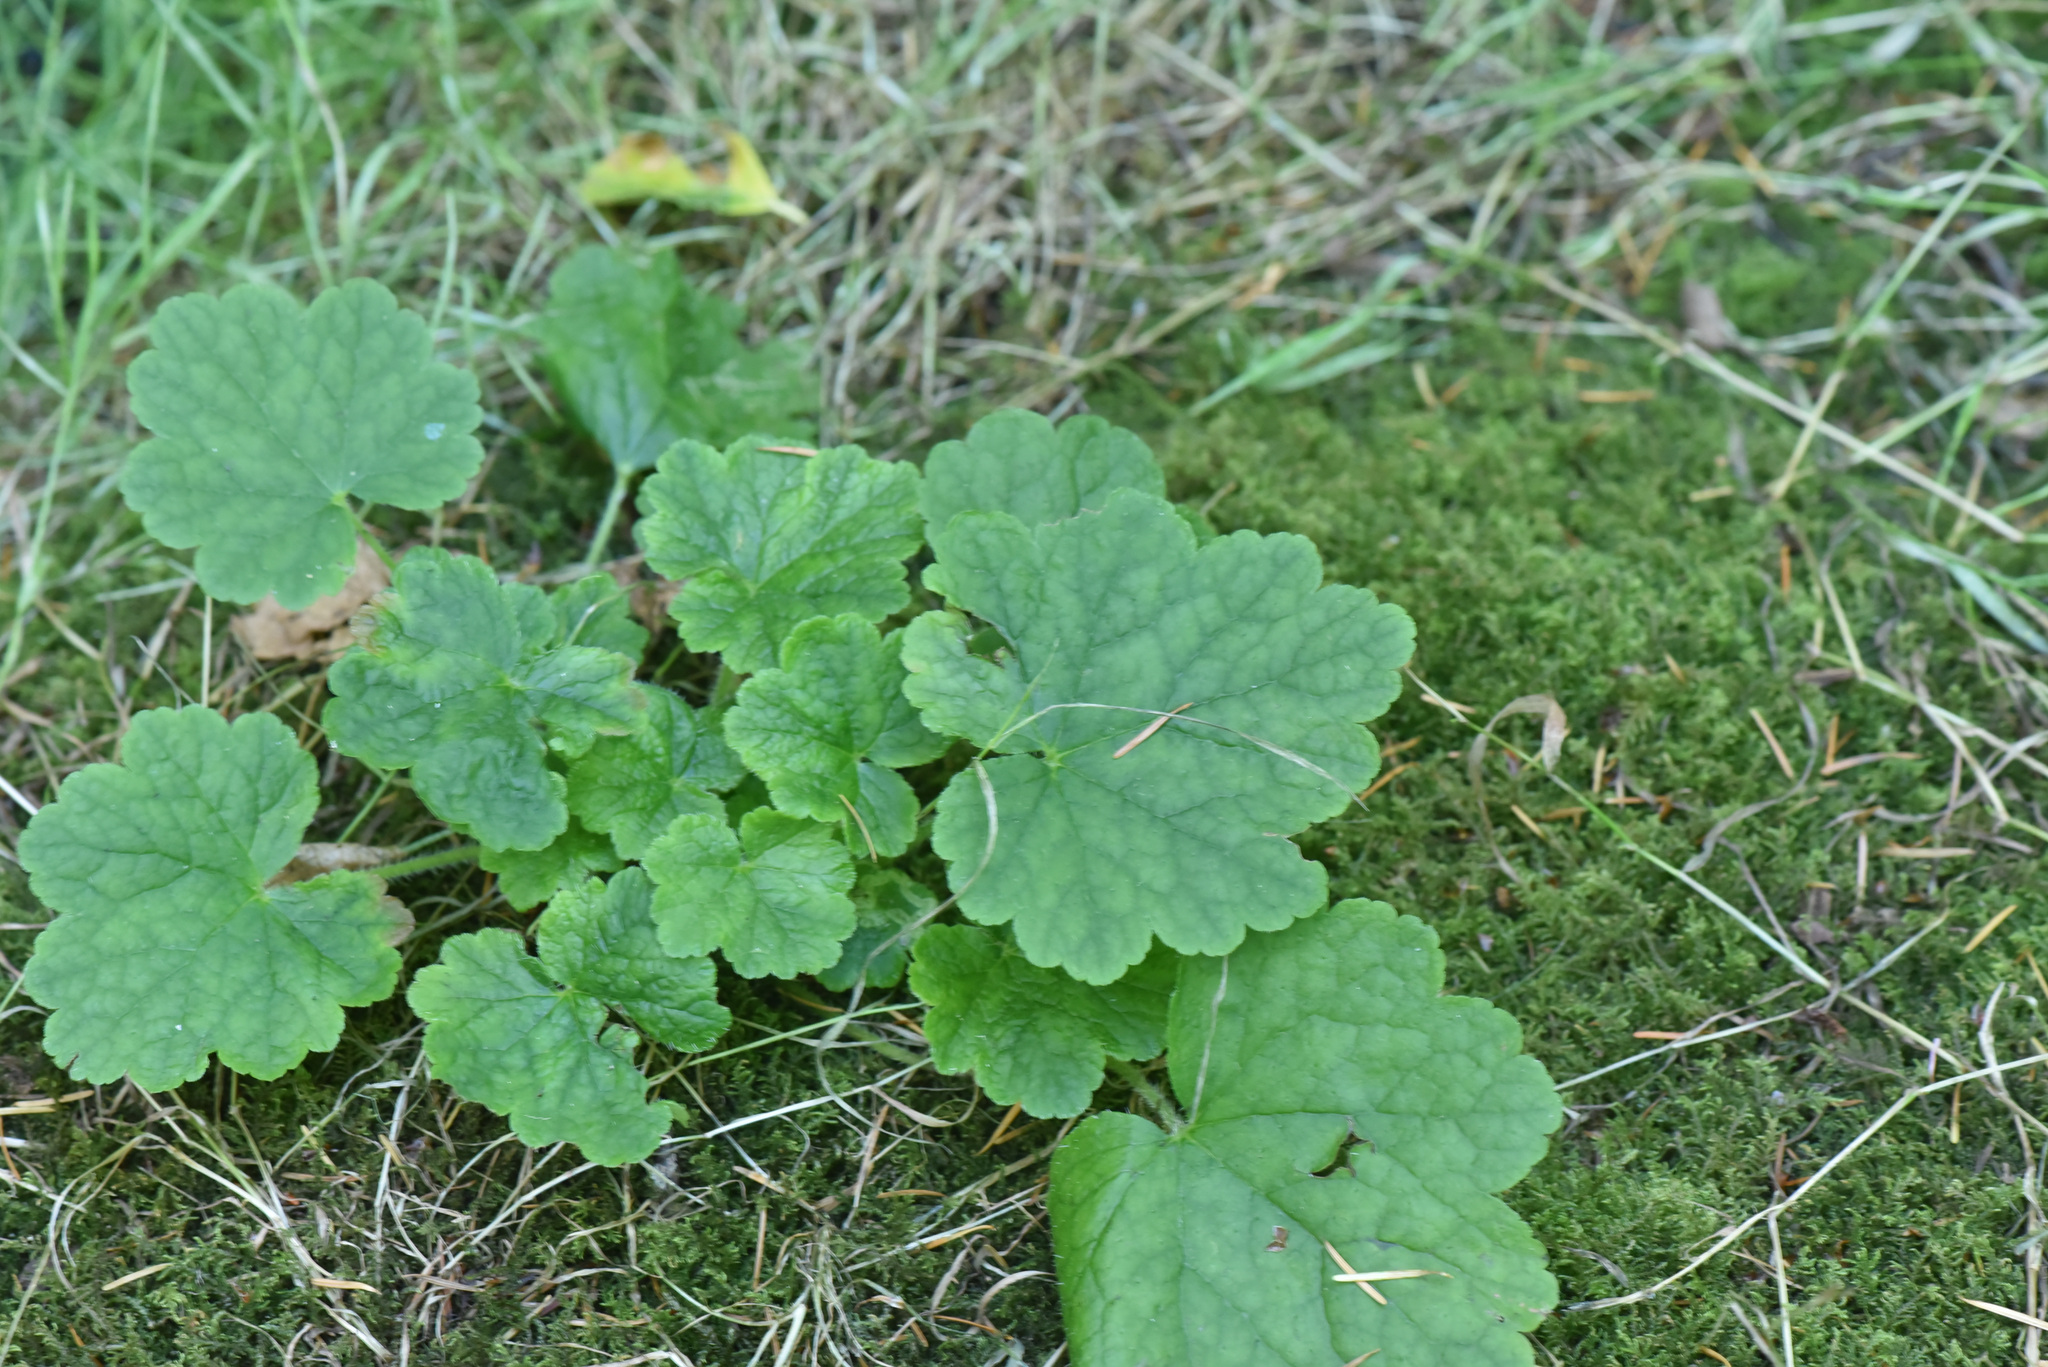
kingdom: Plantae
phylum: Tracheophyta
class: Magnoliopsida
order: Saxifragales
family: Saxifragaceae
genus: Tellima
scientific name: Tellima grandiflora
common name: Fringecups
